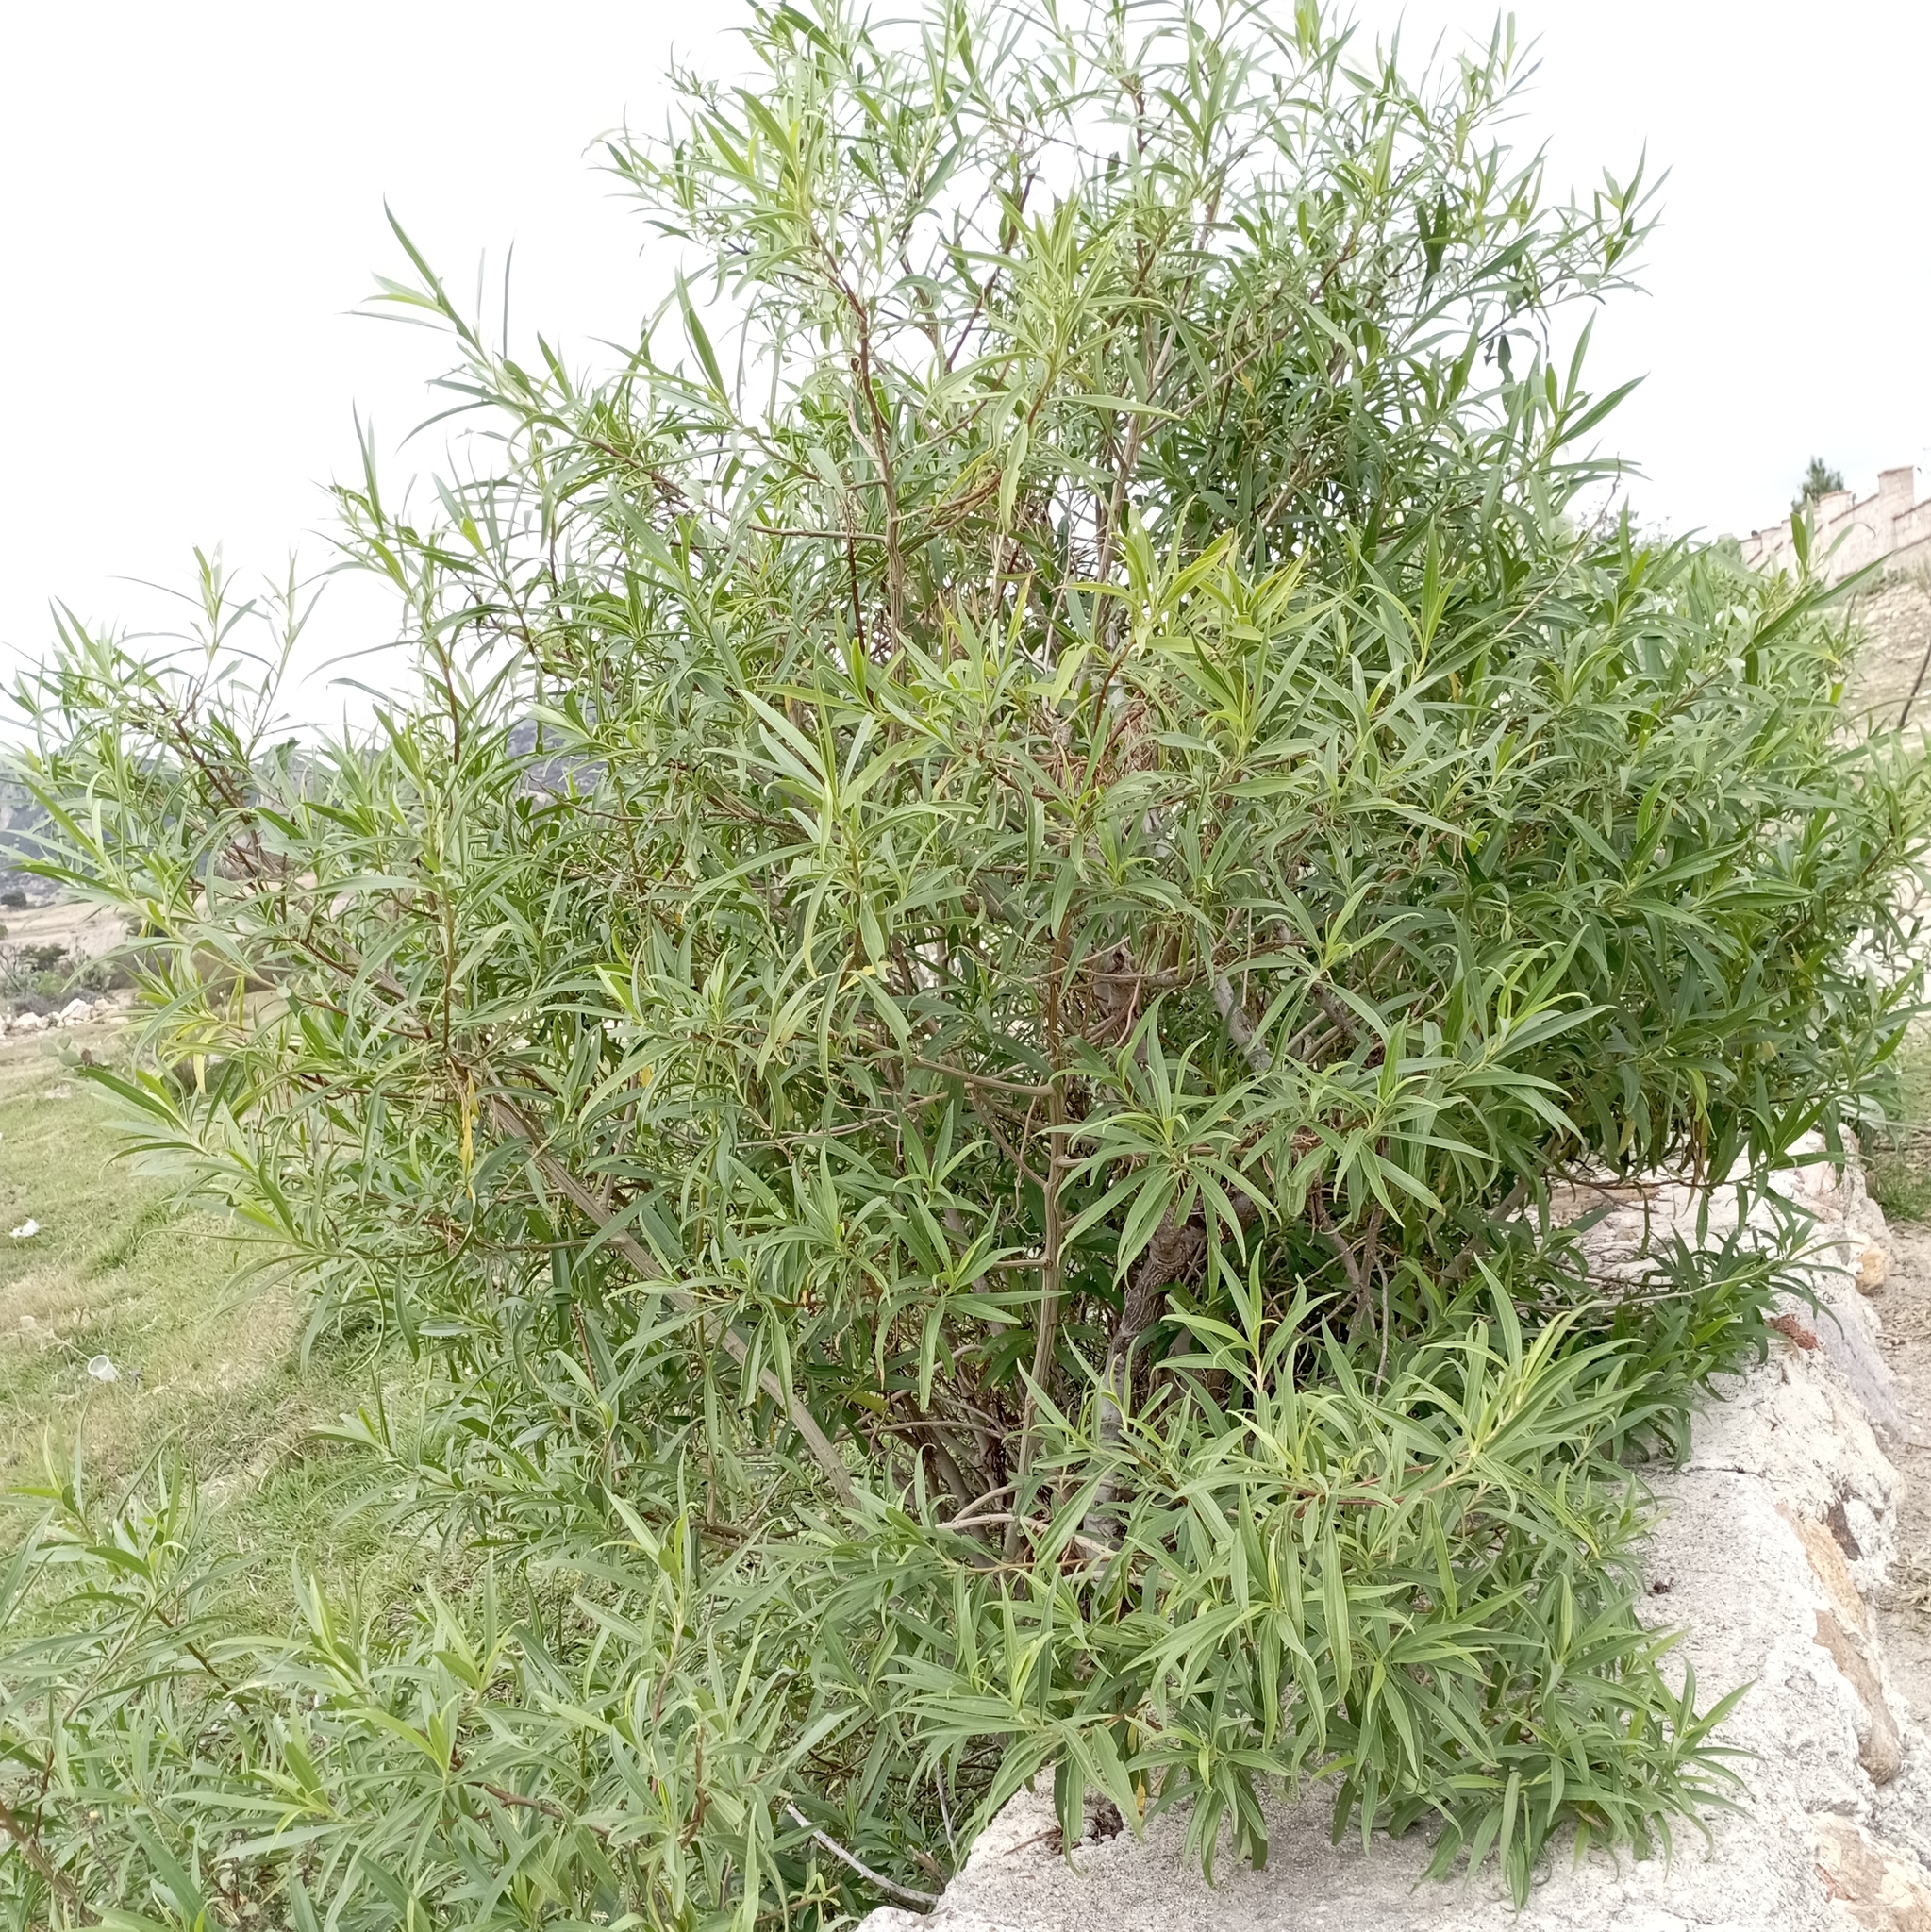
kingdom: Plantae
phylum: Tracheophyta
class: Magnoliopsida
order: Asterales
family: Asteraceae
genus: Barkleyanthus
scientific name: Barkleyanthus salicifolius
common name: Willow ragwort
